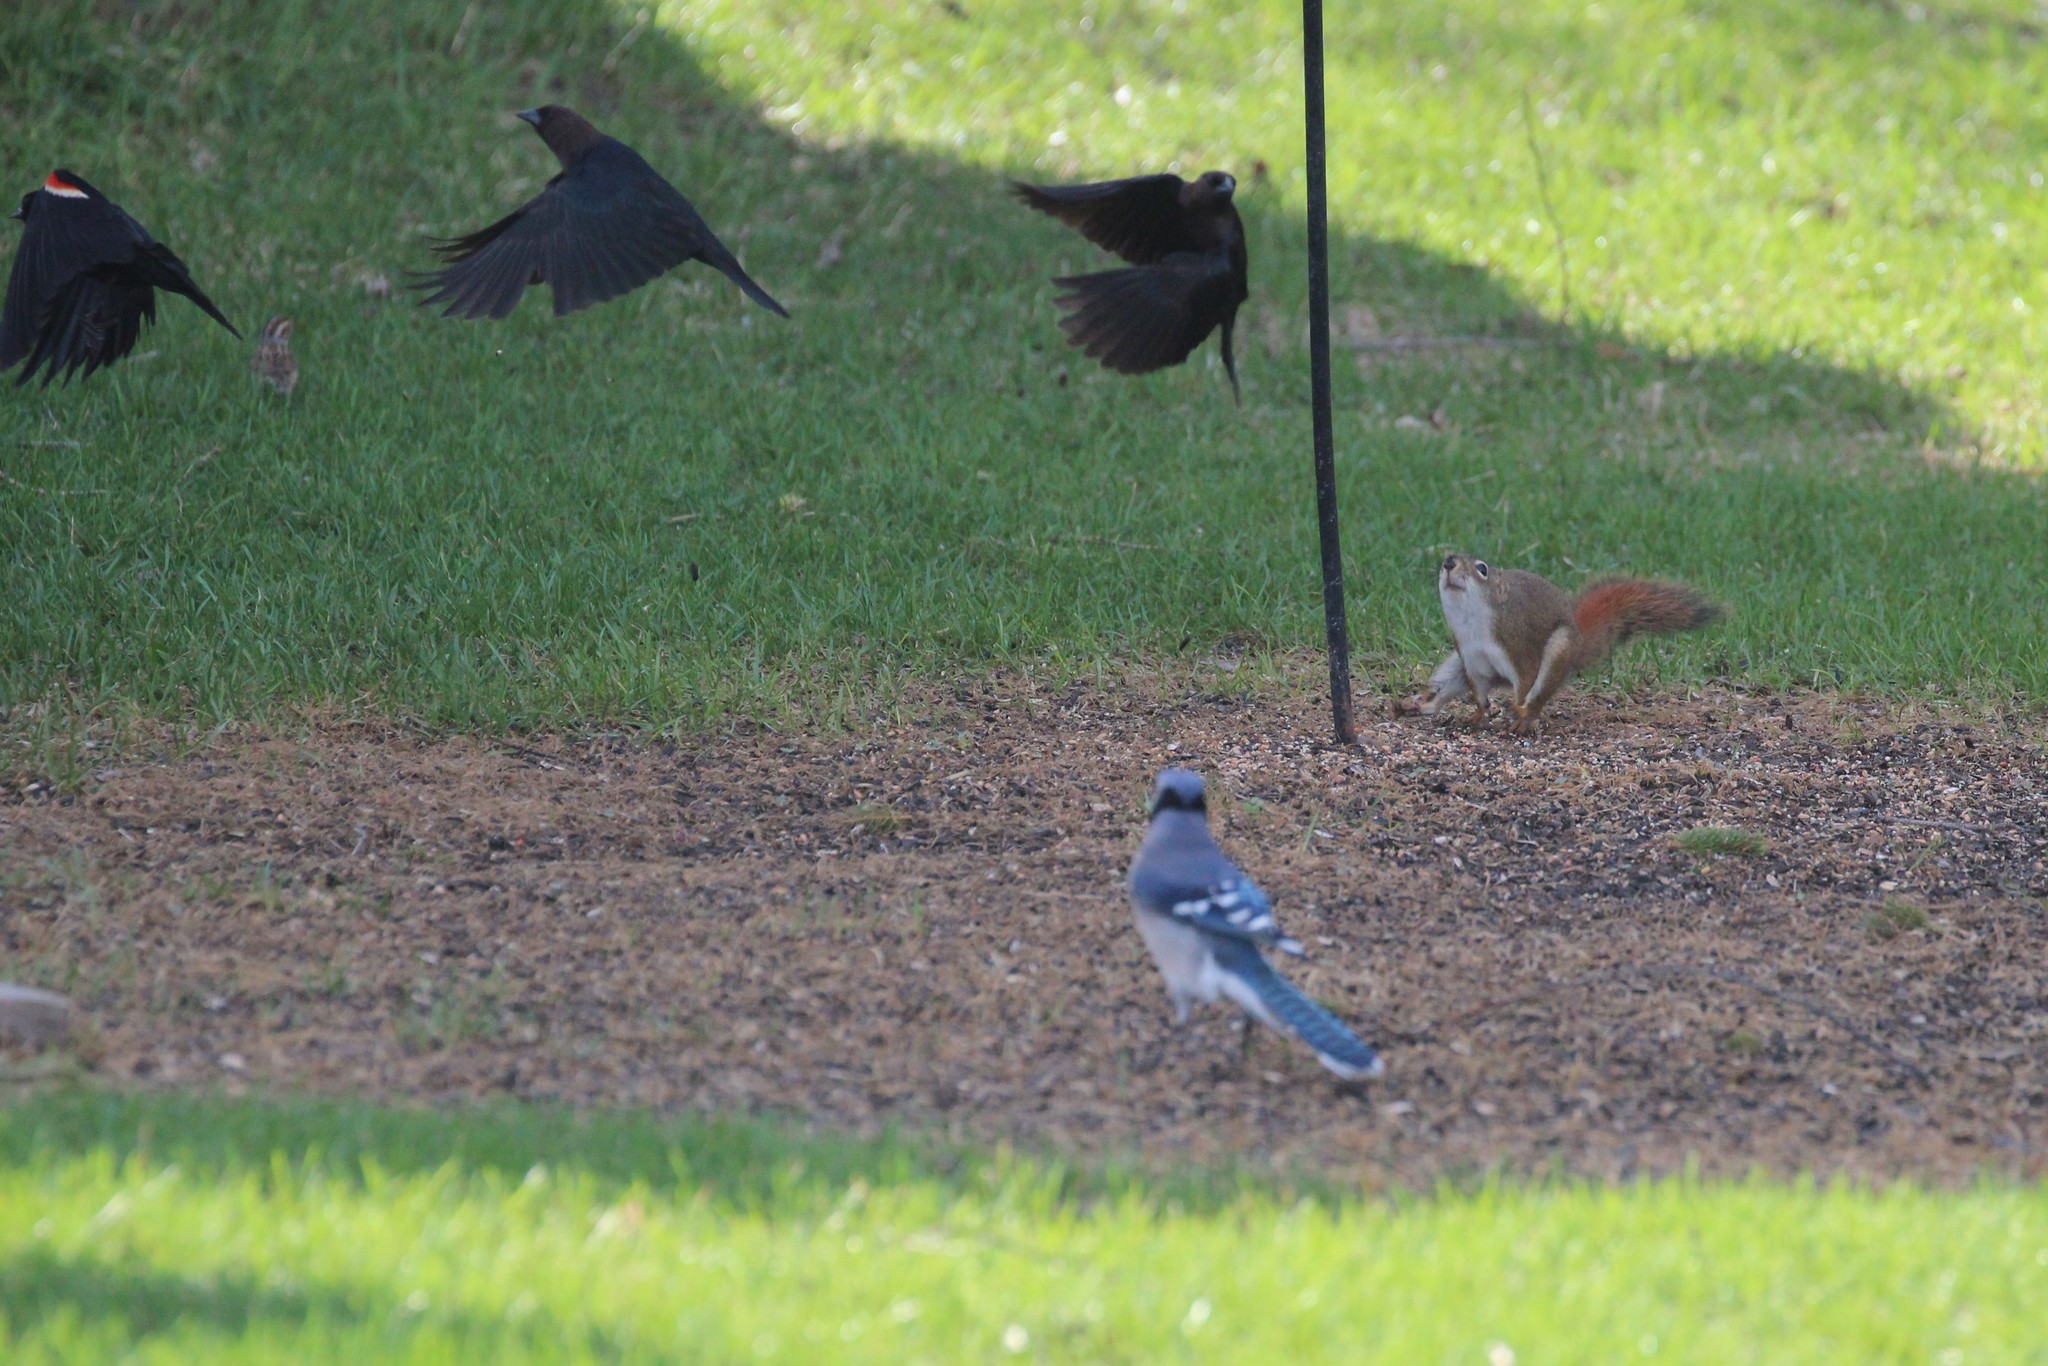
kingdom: Animalia
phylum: Chordata
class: Mammalia
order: Rodentia
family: Sciuridae
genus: Tamiasciurus
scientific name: Tamiasciurus hudsonicus
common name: Red squirrel
